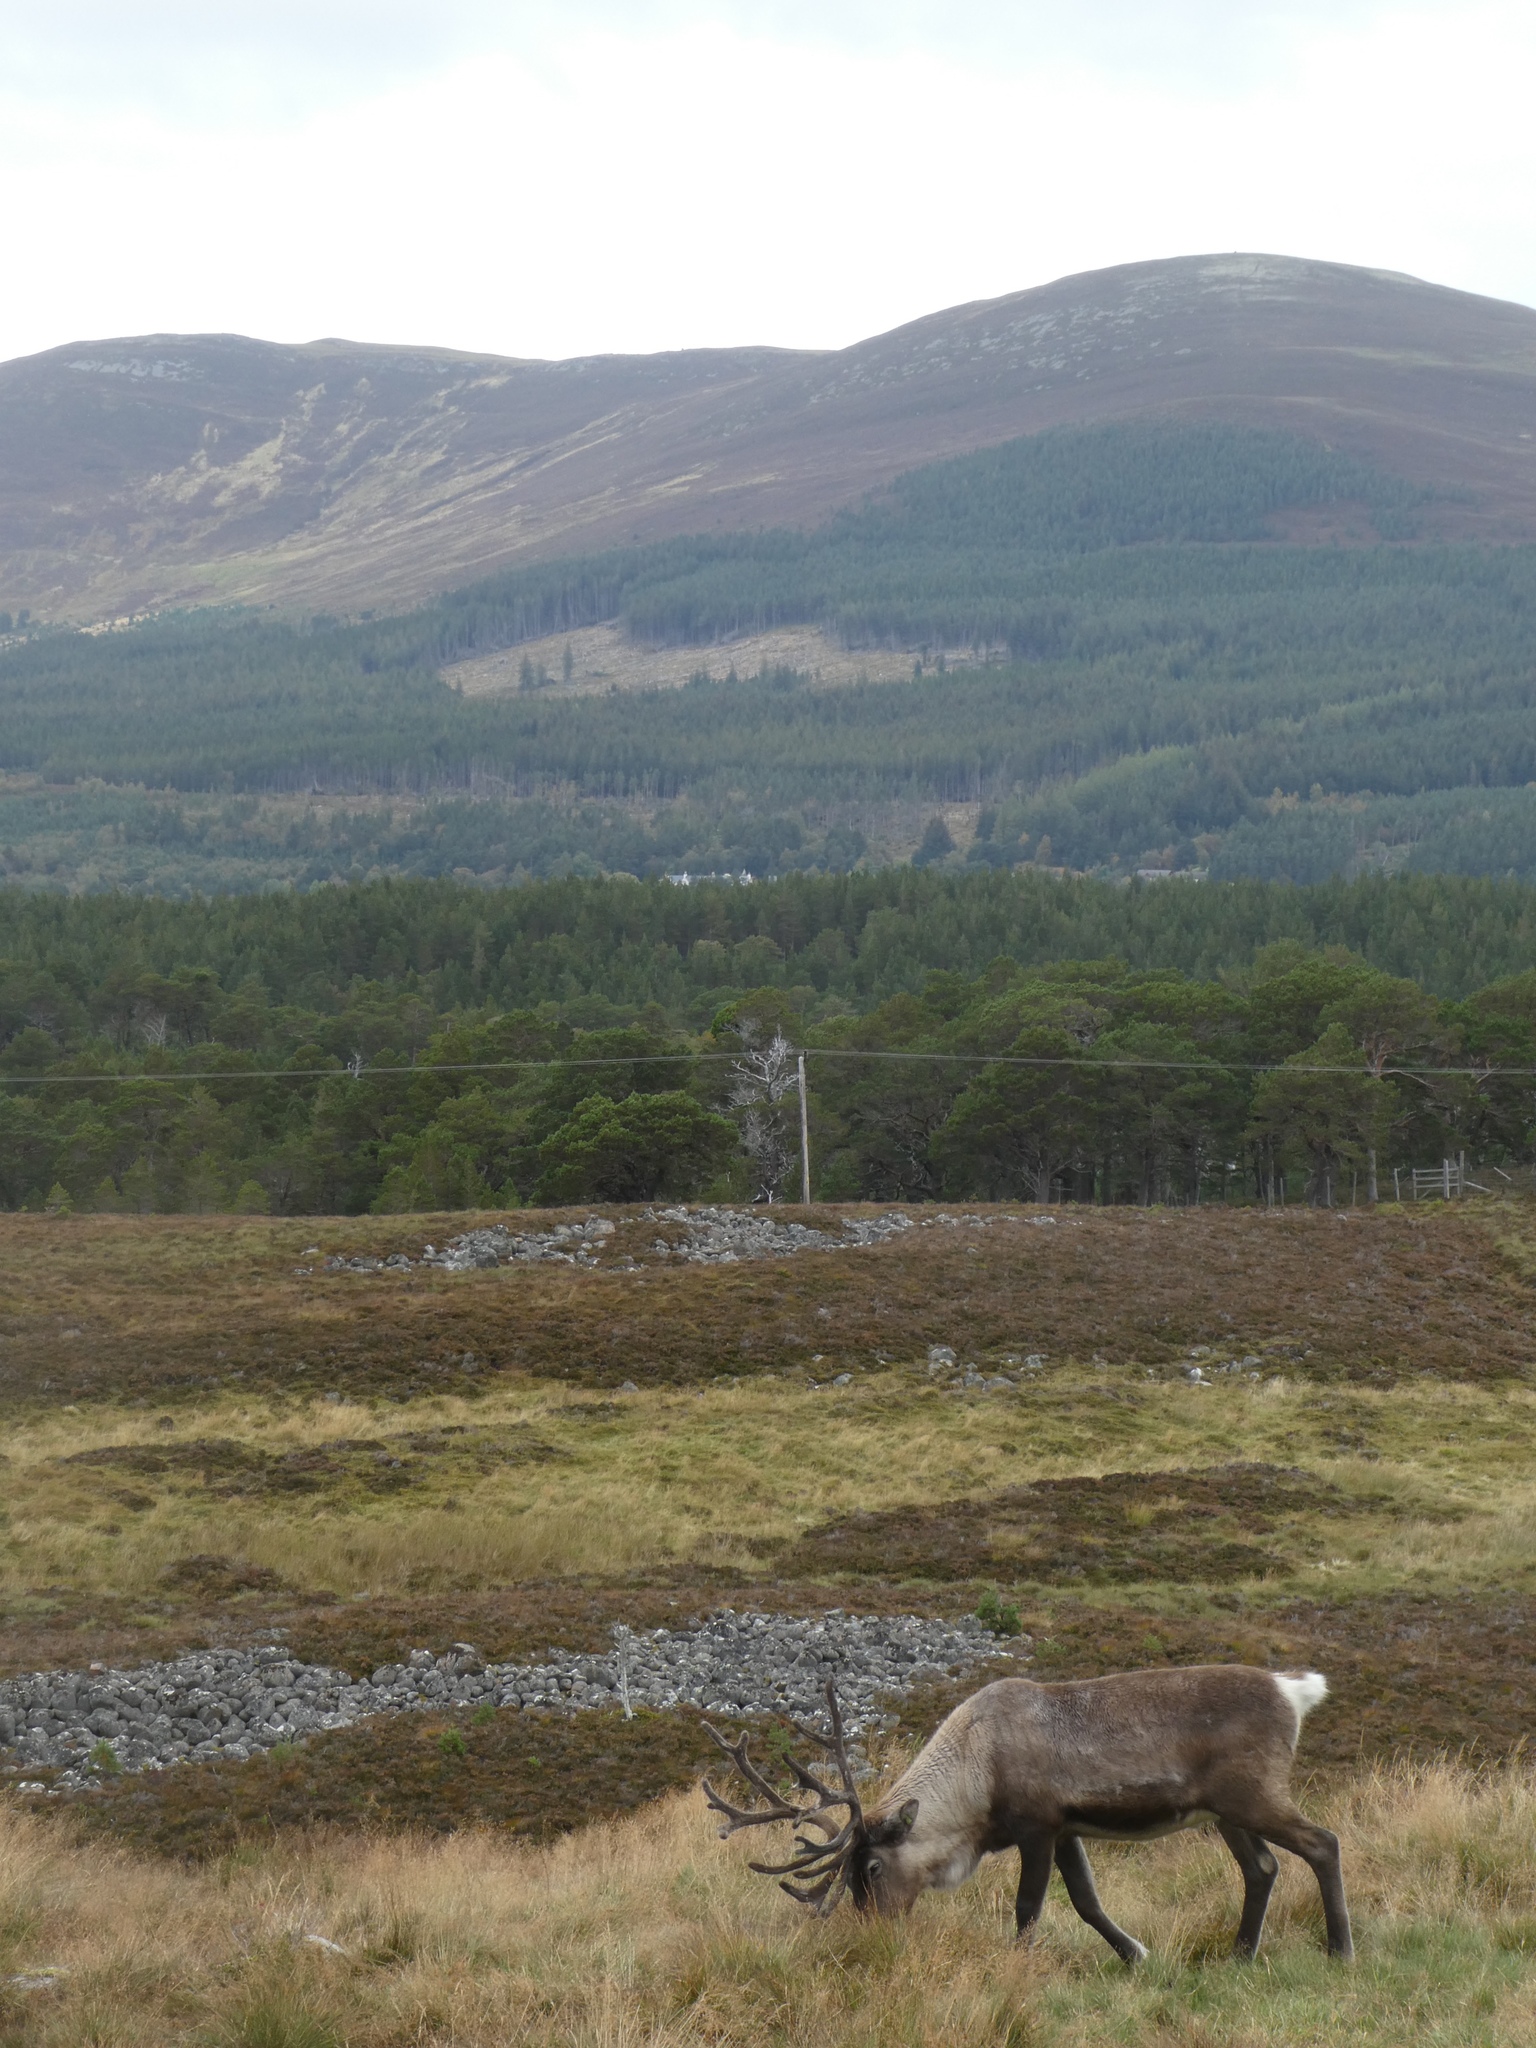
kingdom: Animalia
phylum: Chordata
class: Mammalia
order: Artiodactyla
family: Cervidae
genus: Rangifer
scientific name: Rangifer tarandus
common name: Reindeer
